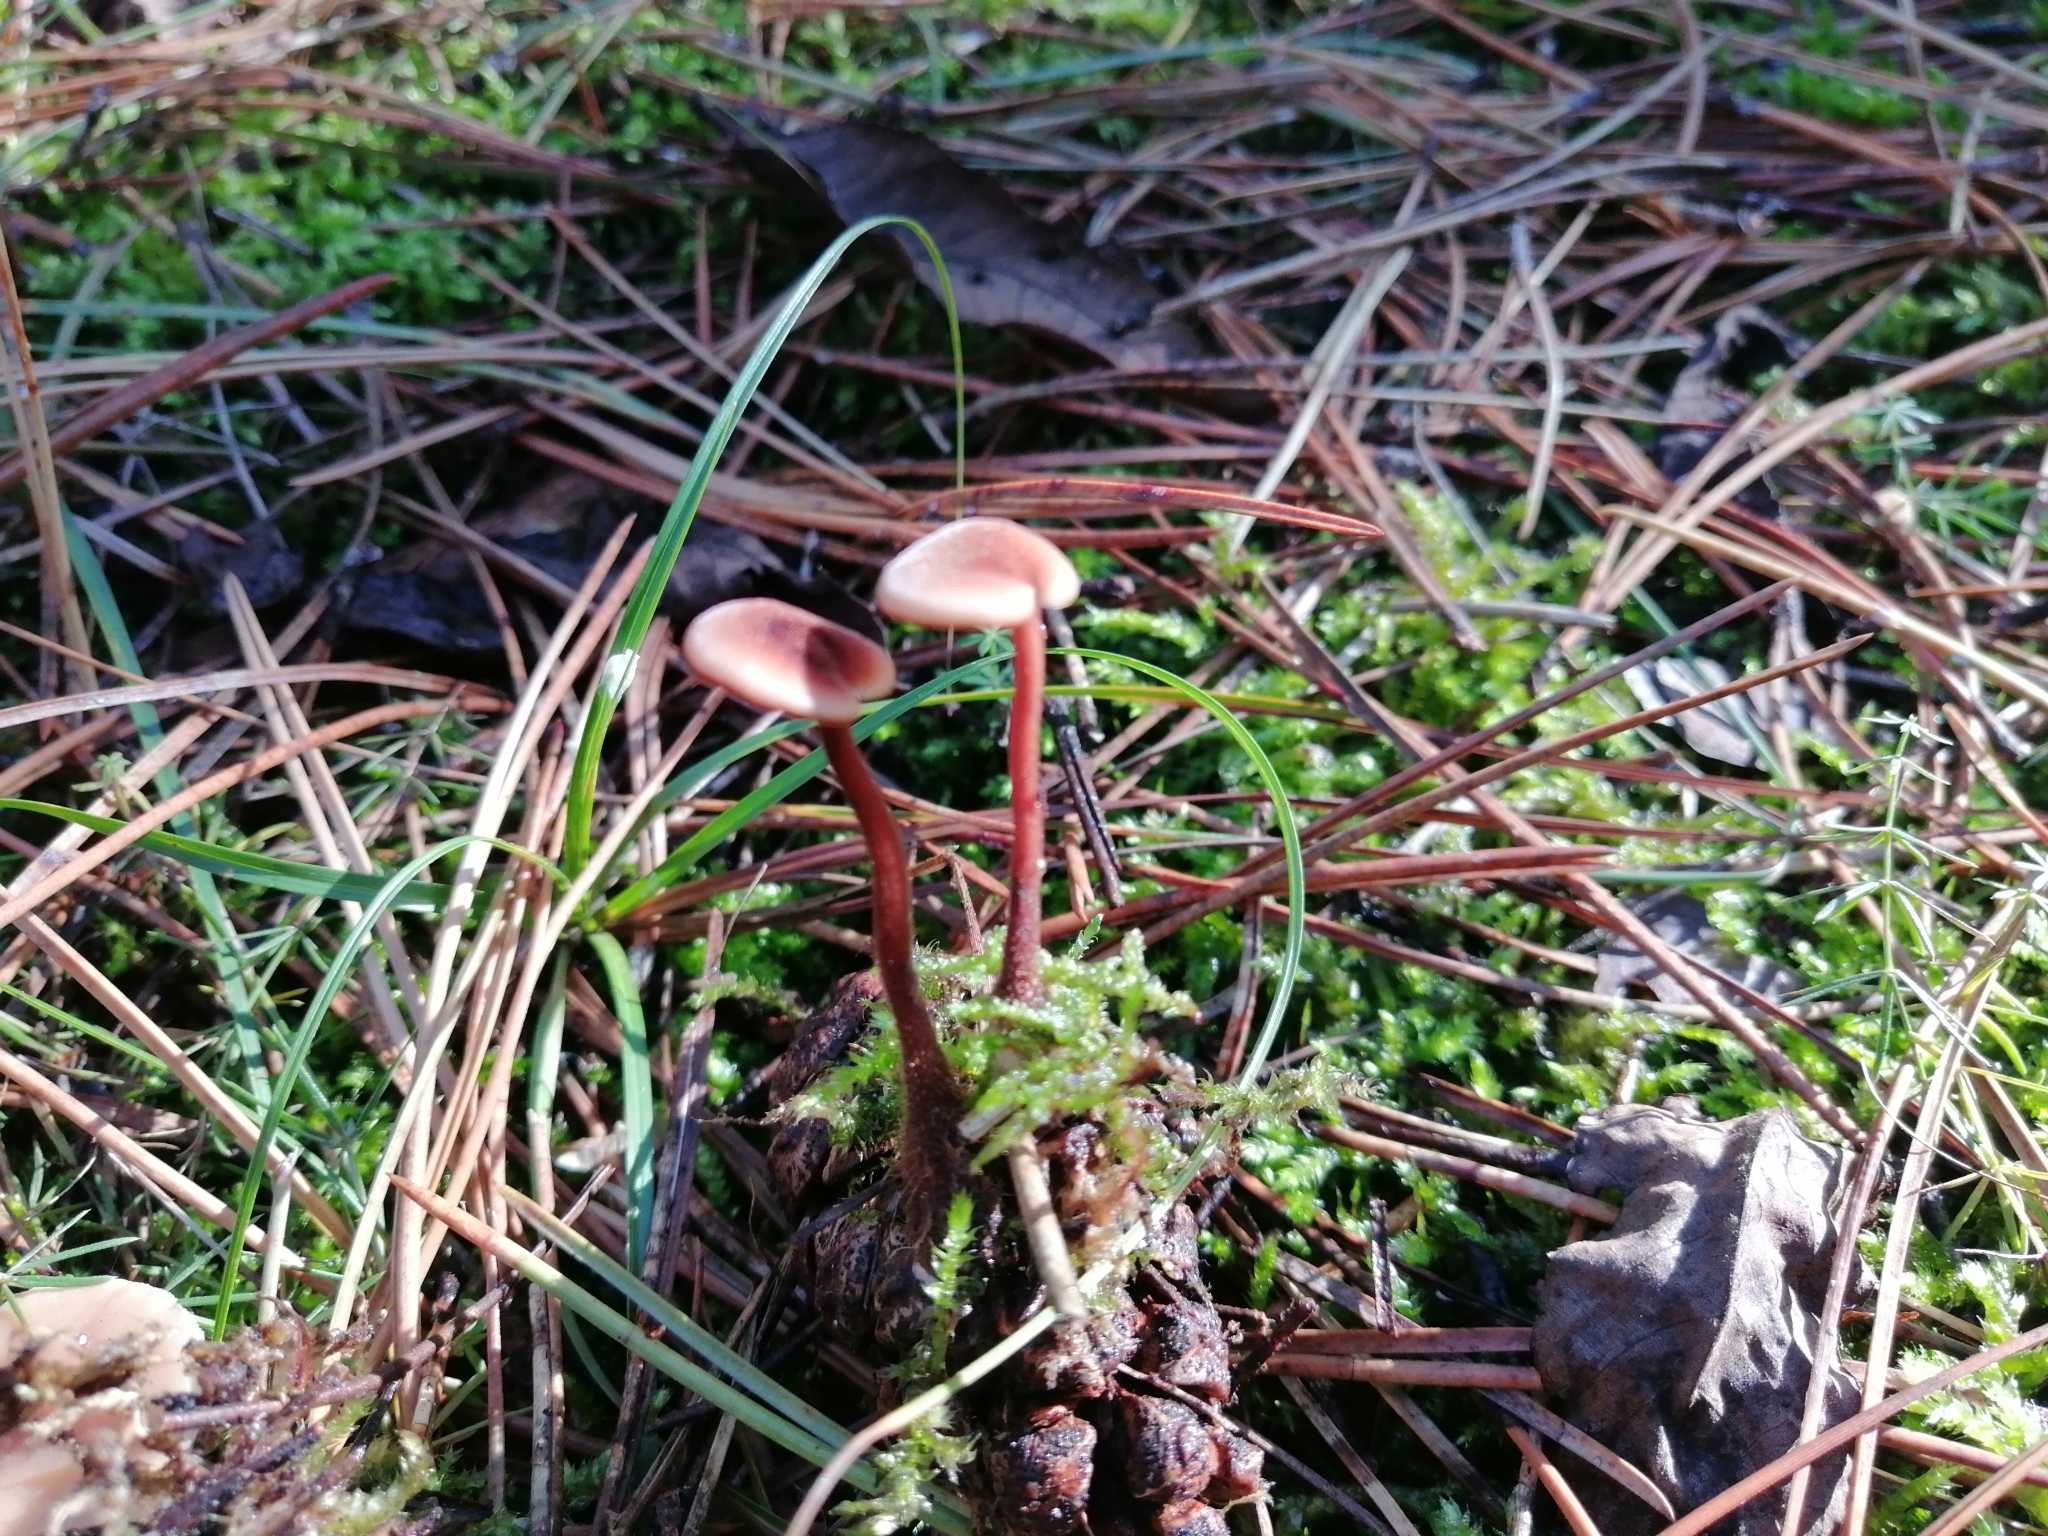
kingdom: Fungi
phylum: Basidiomycota
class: Agaricomycetes
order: Russulales
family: Auriscalpiaceae
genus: Auriscalpium
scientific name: Auriscalpium vulgare
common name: Earpick fungus
